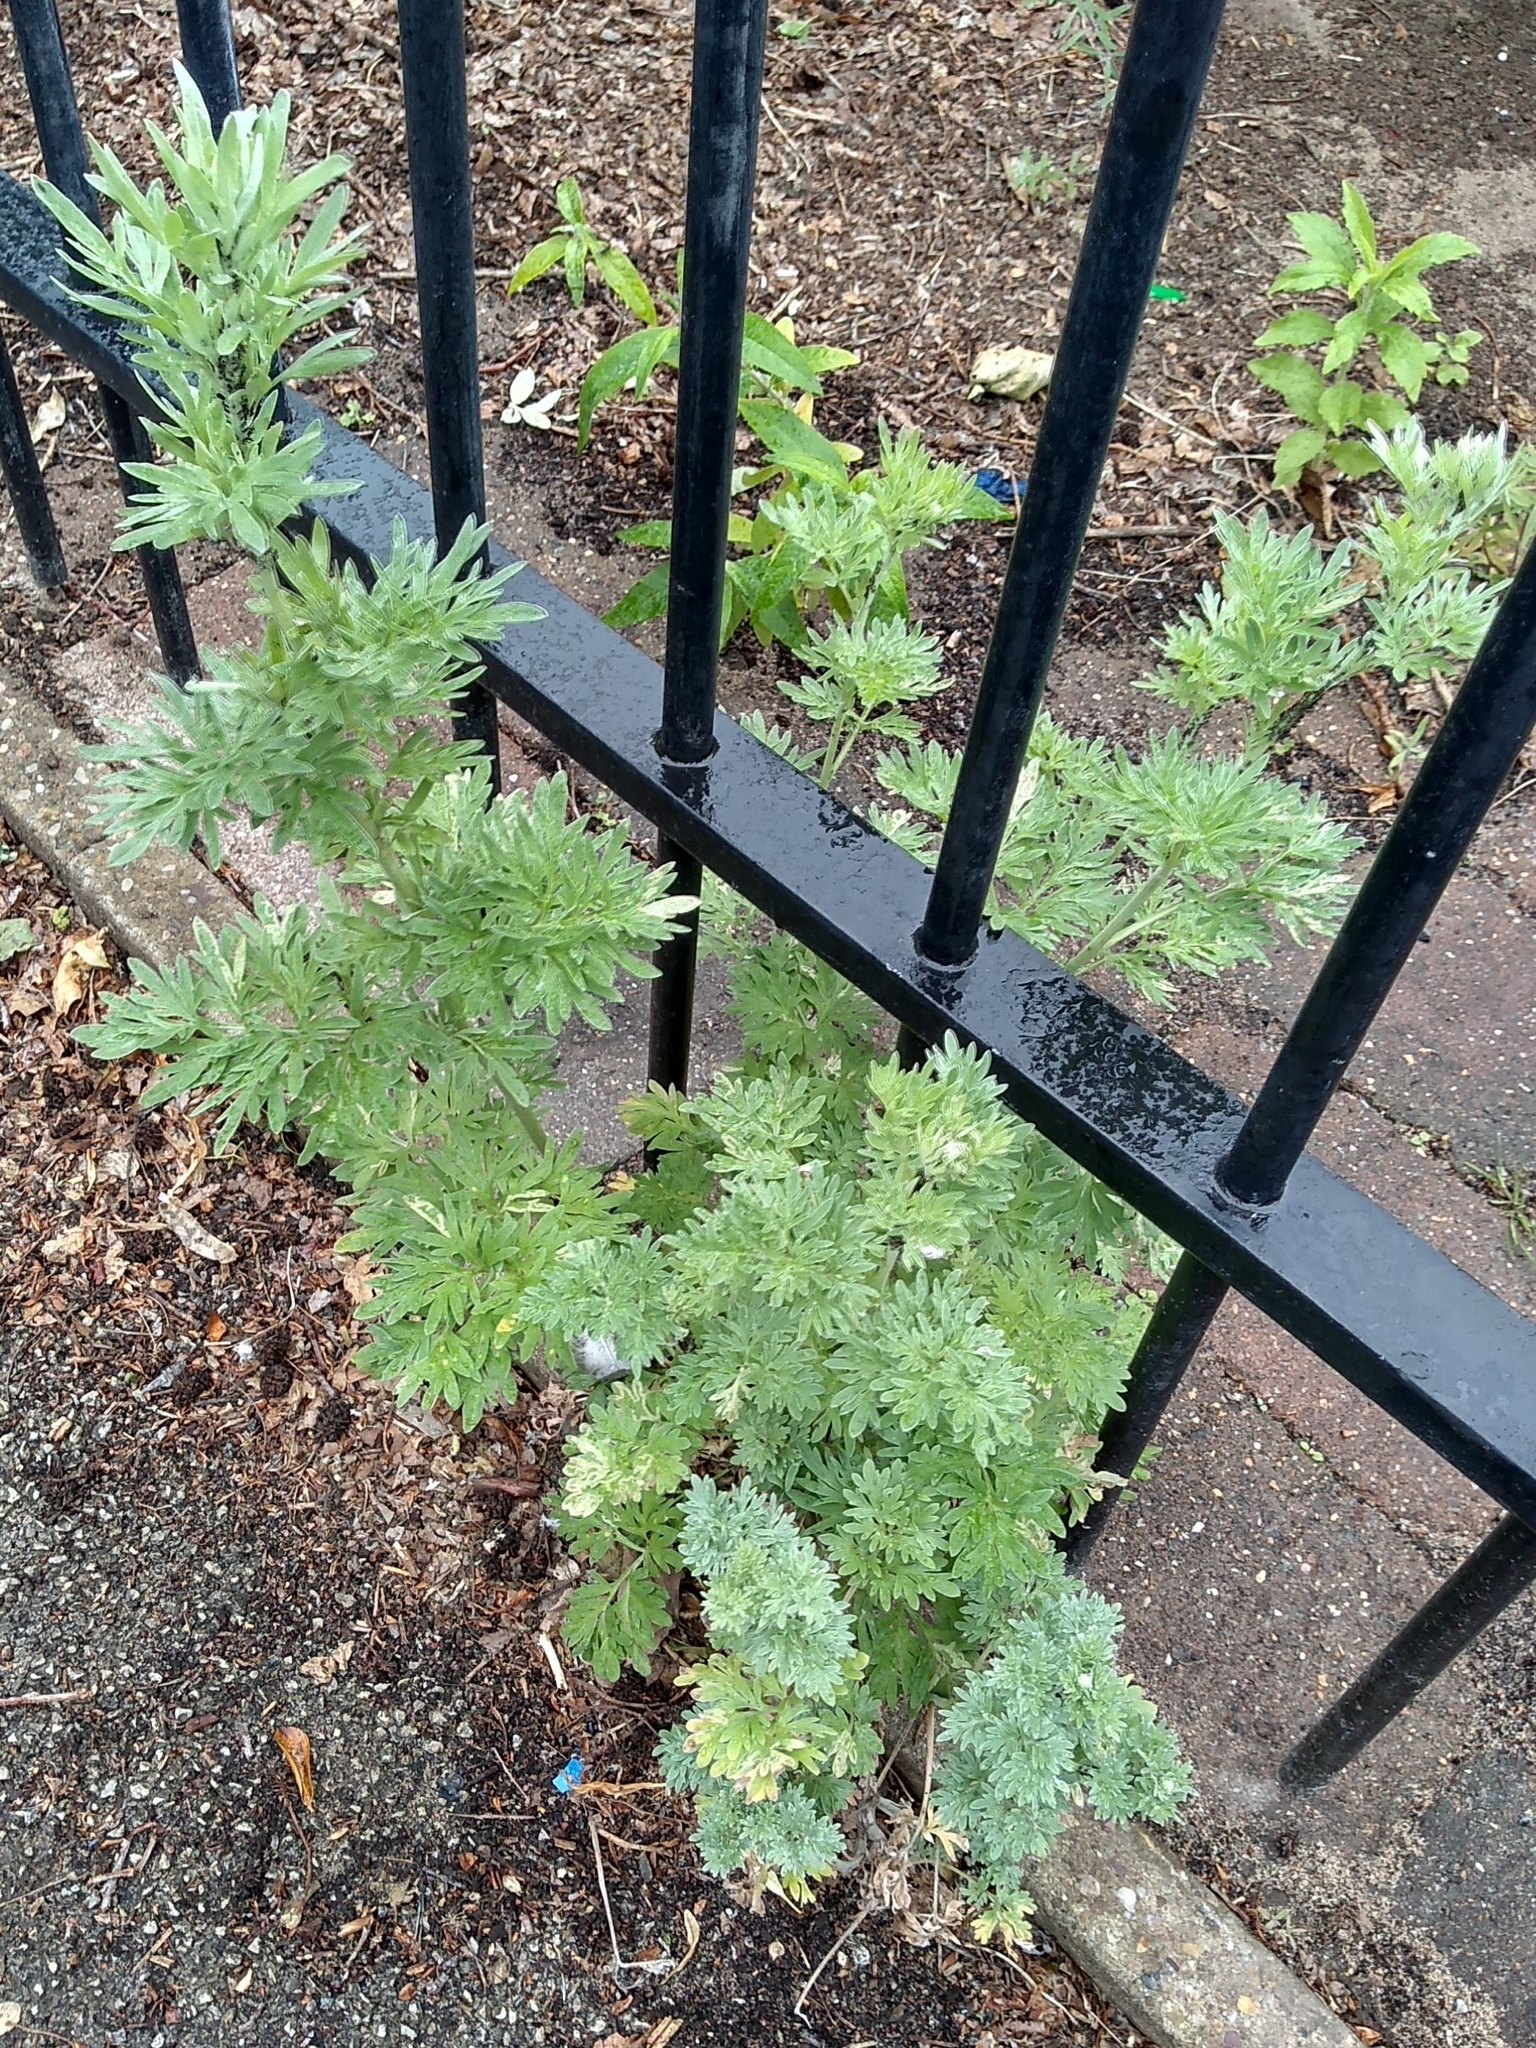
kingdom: Plantae
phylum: Tracheophyta
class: Magnoliopsida
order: Asterales
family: Asteraceae
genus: Artemisia
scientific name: Artemisia absinthium
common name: Wormwood
